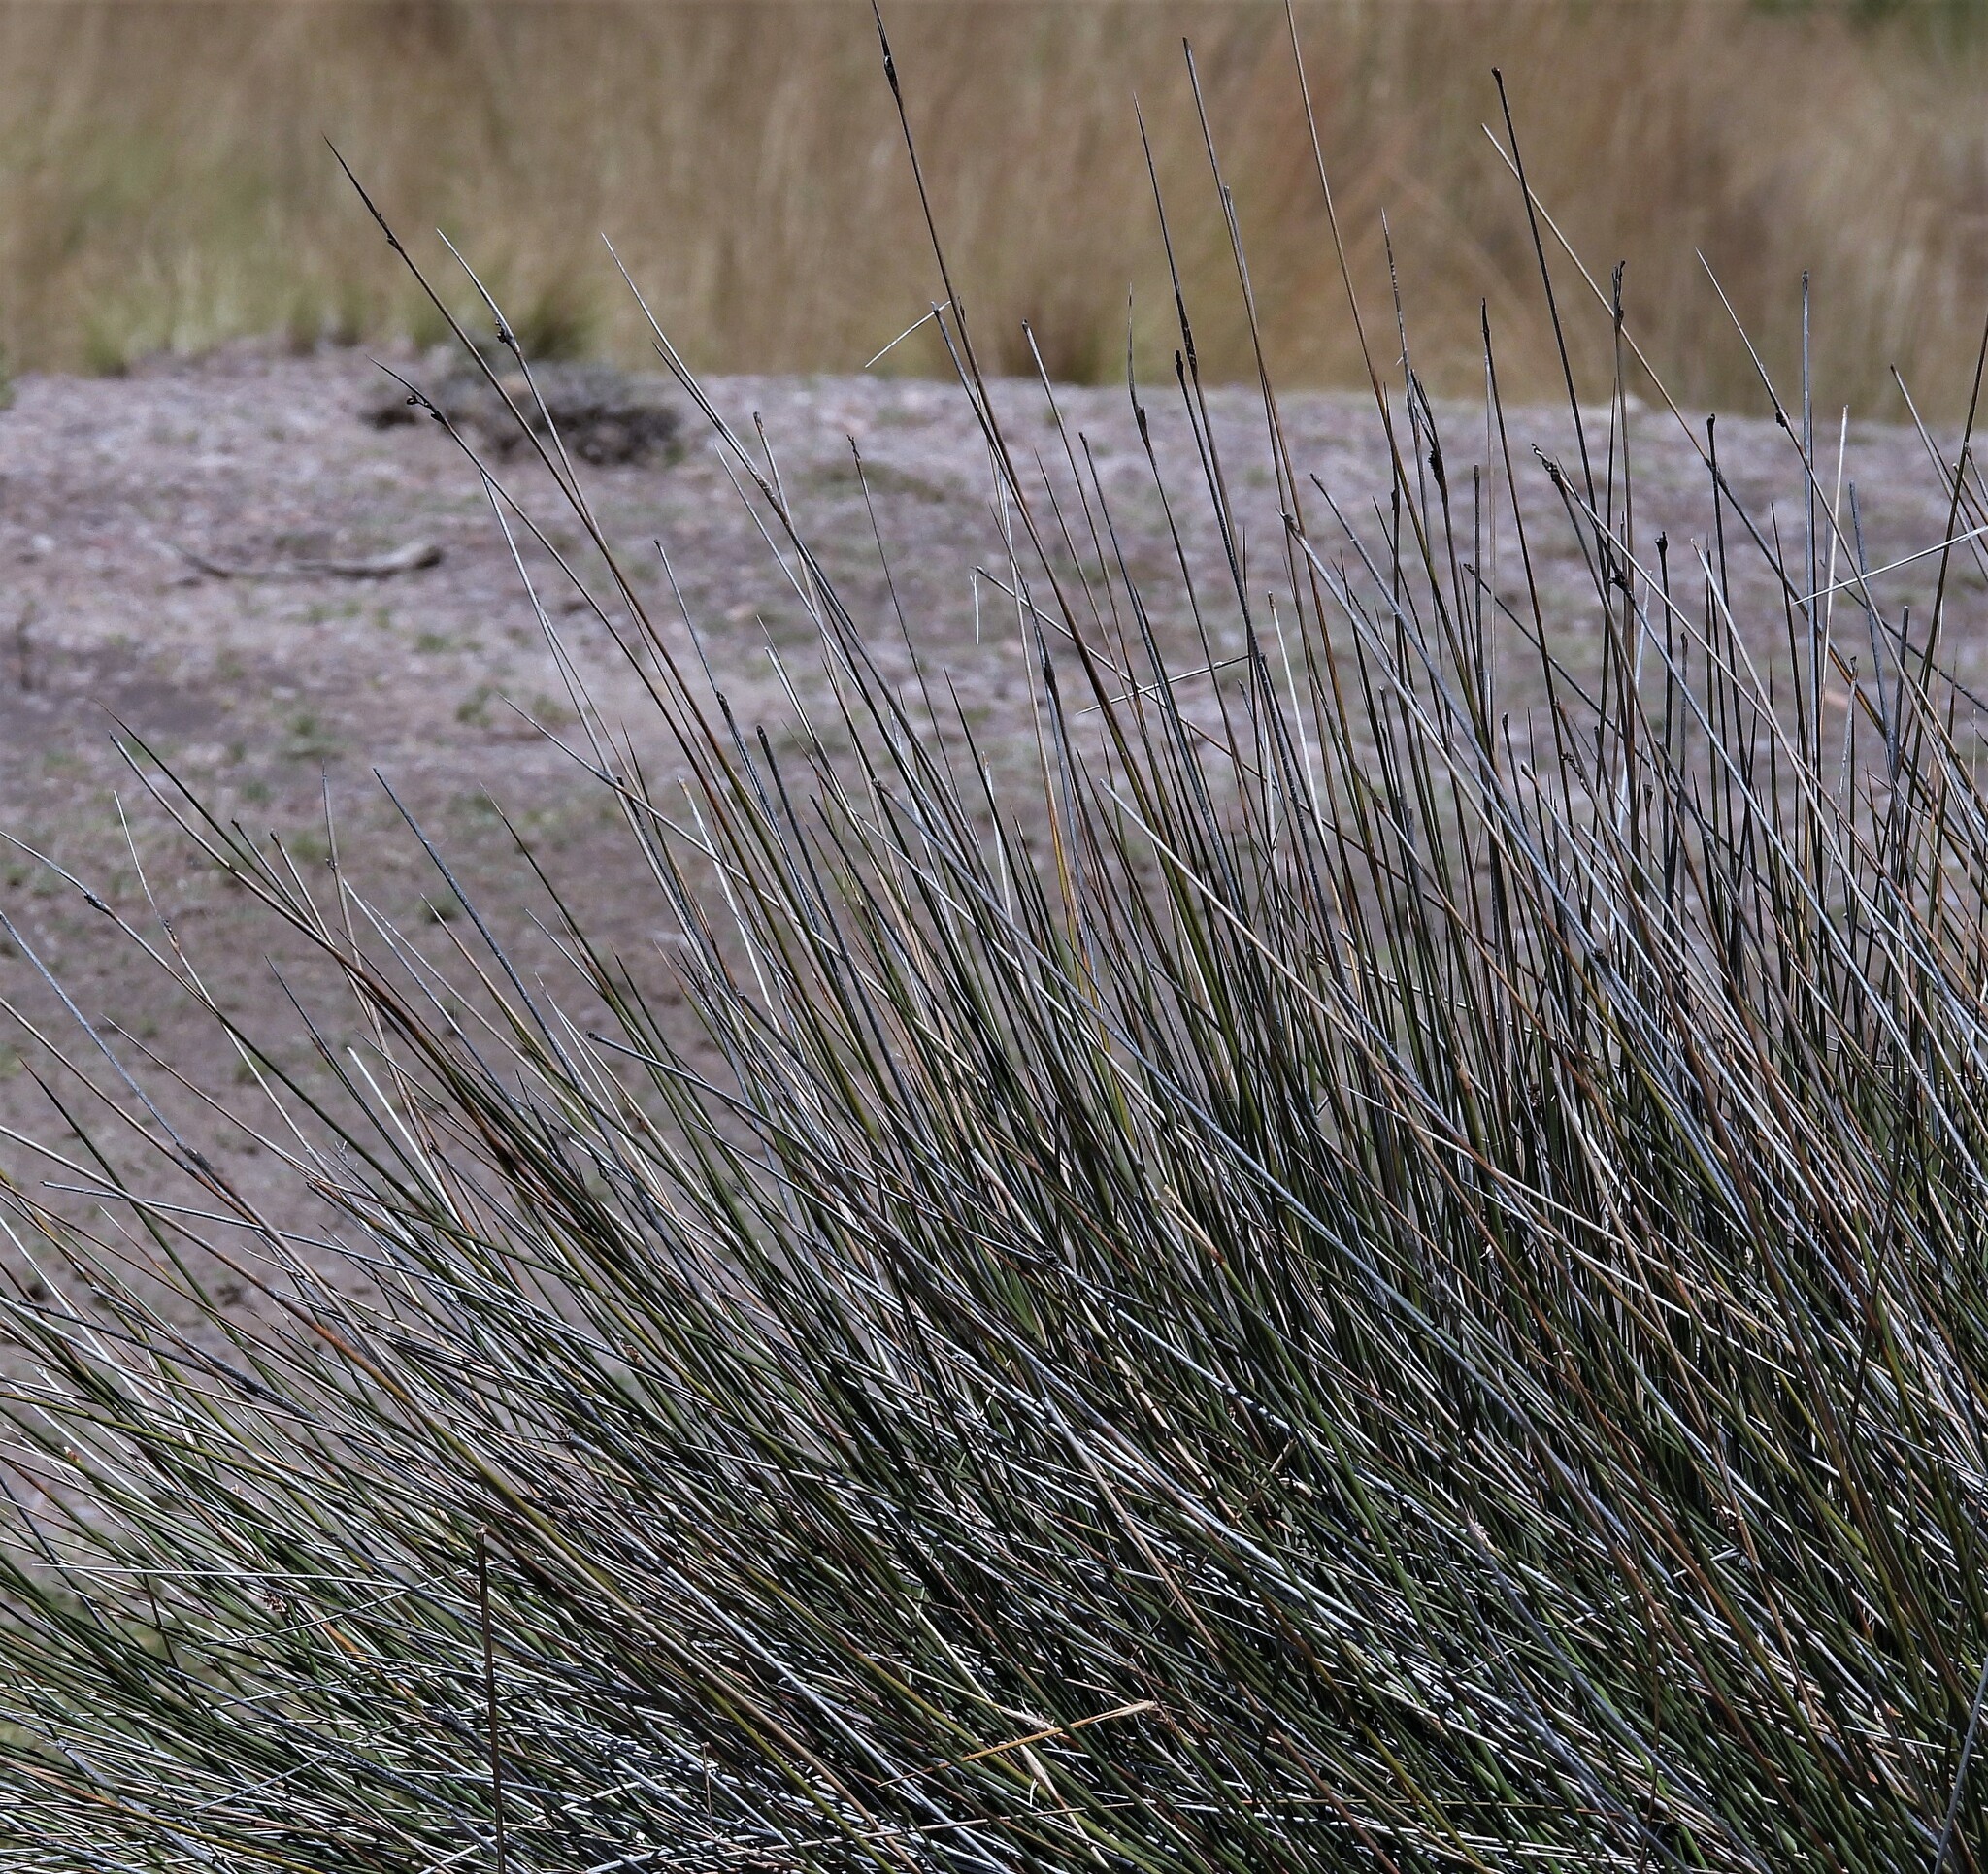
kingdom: Plantae
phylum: Tracheophyta
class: Liliopsida
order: Poales
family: Juncaceae
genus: Juncus
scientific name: Juncus acutus
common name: Sharp rush
